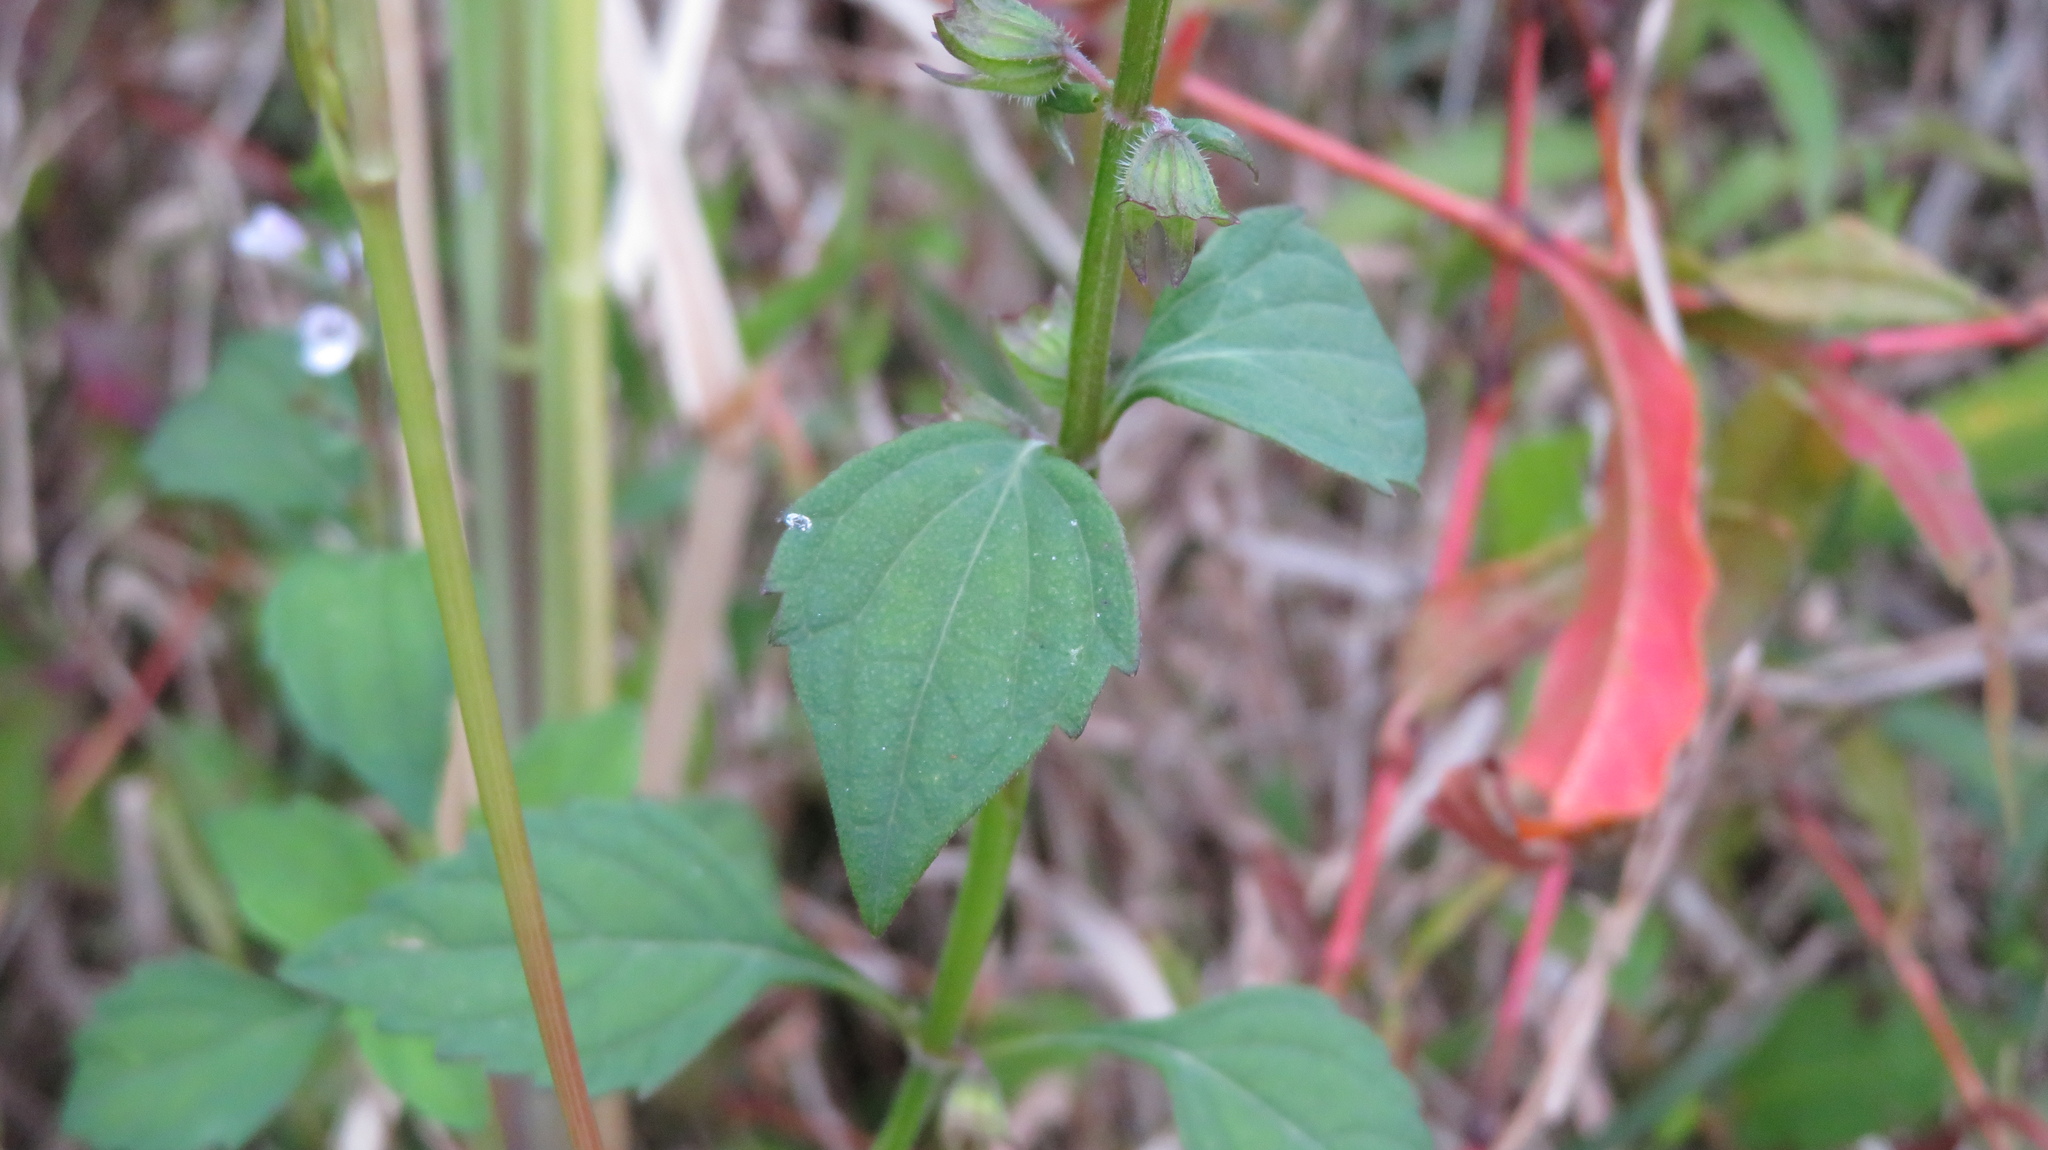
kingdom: Plantae
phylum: Tracheophyta
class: Magnoliopsida
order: Lamiales
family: Lamiaceae
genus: Mosla
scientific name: Mosla scabra
